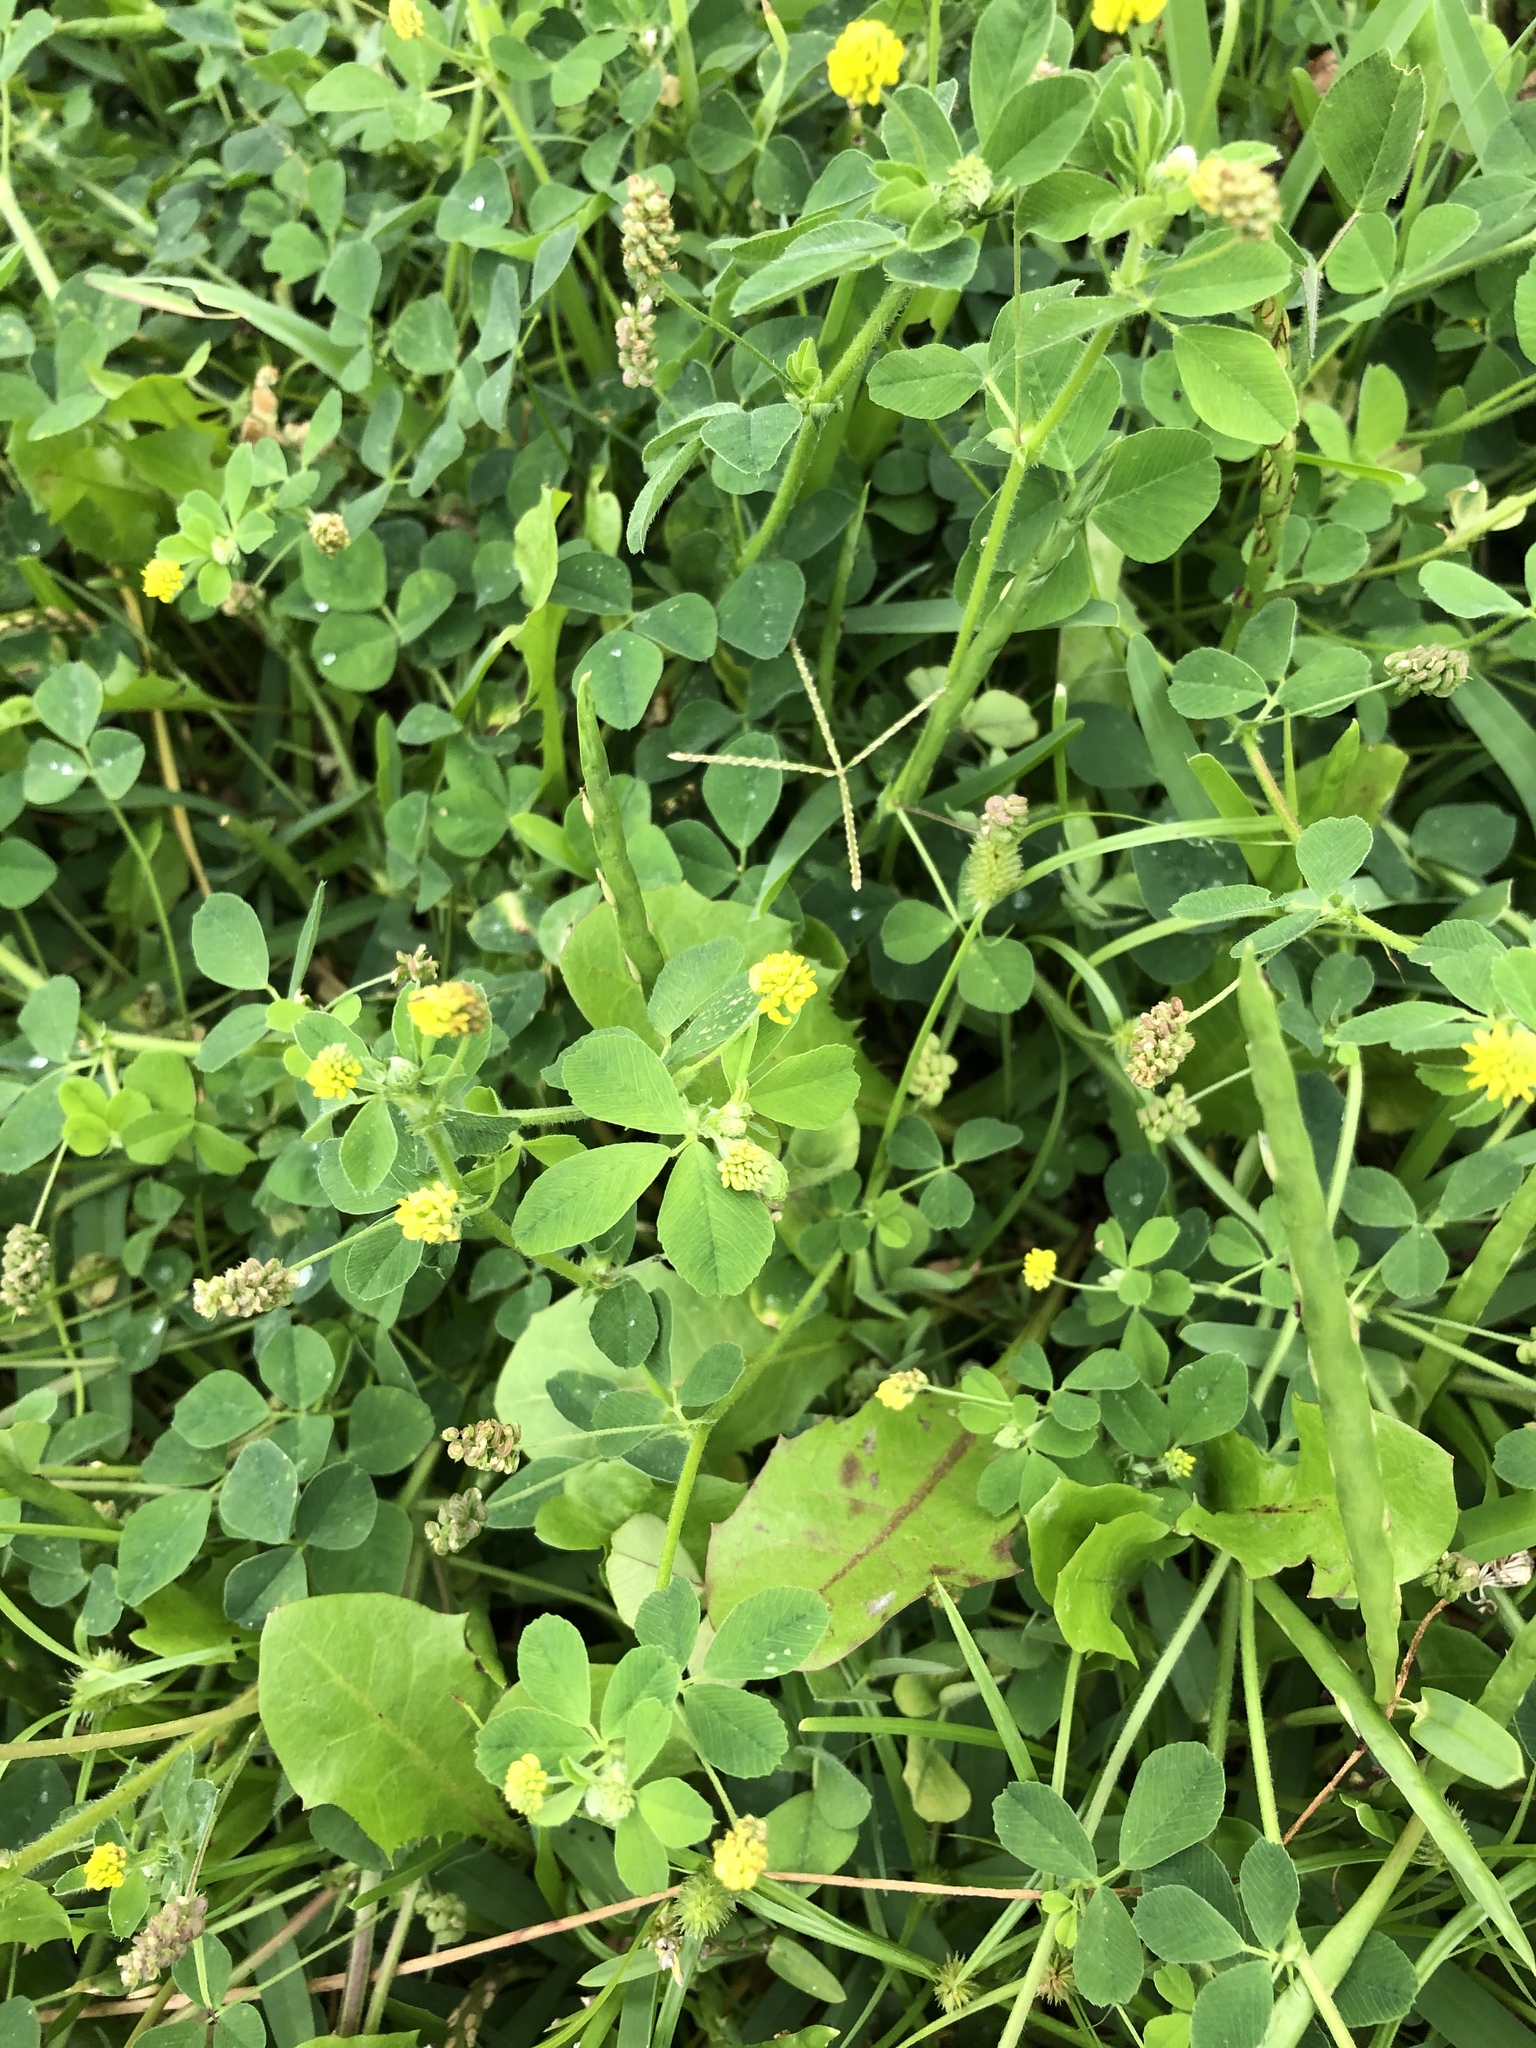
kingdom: Plantae
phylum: Tracheophyta
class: Magnoliopsida
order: Fabales
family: Fabaceae
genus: Medicago
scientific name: Medicago lupulina
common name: Black medick
